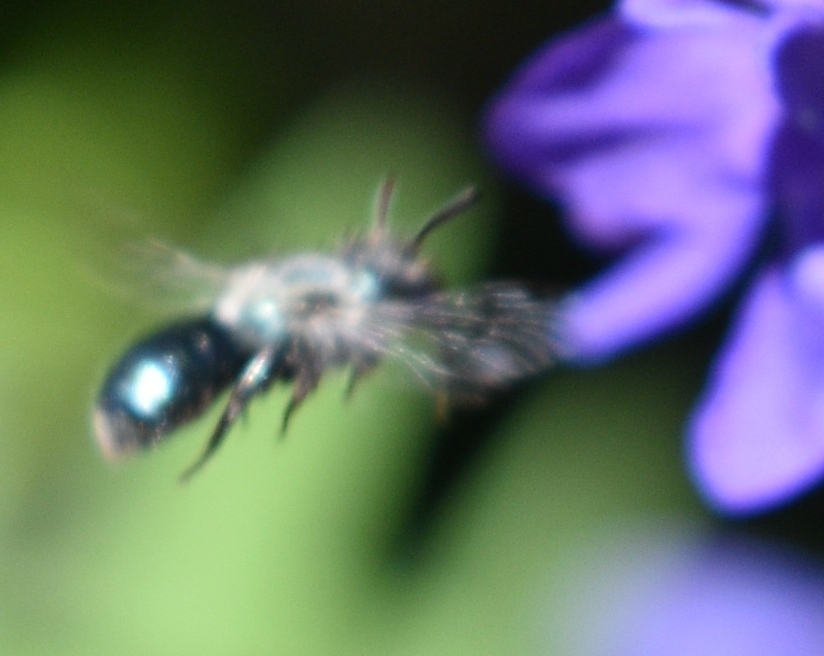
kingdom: Animalia
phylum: Arthropoda
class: Insecta
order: Hymenoptera
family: Megachilidae
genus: Osmia
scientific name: Osmia
